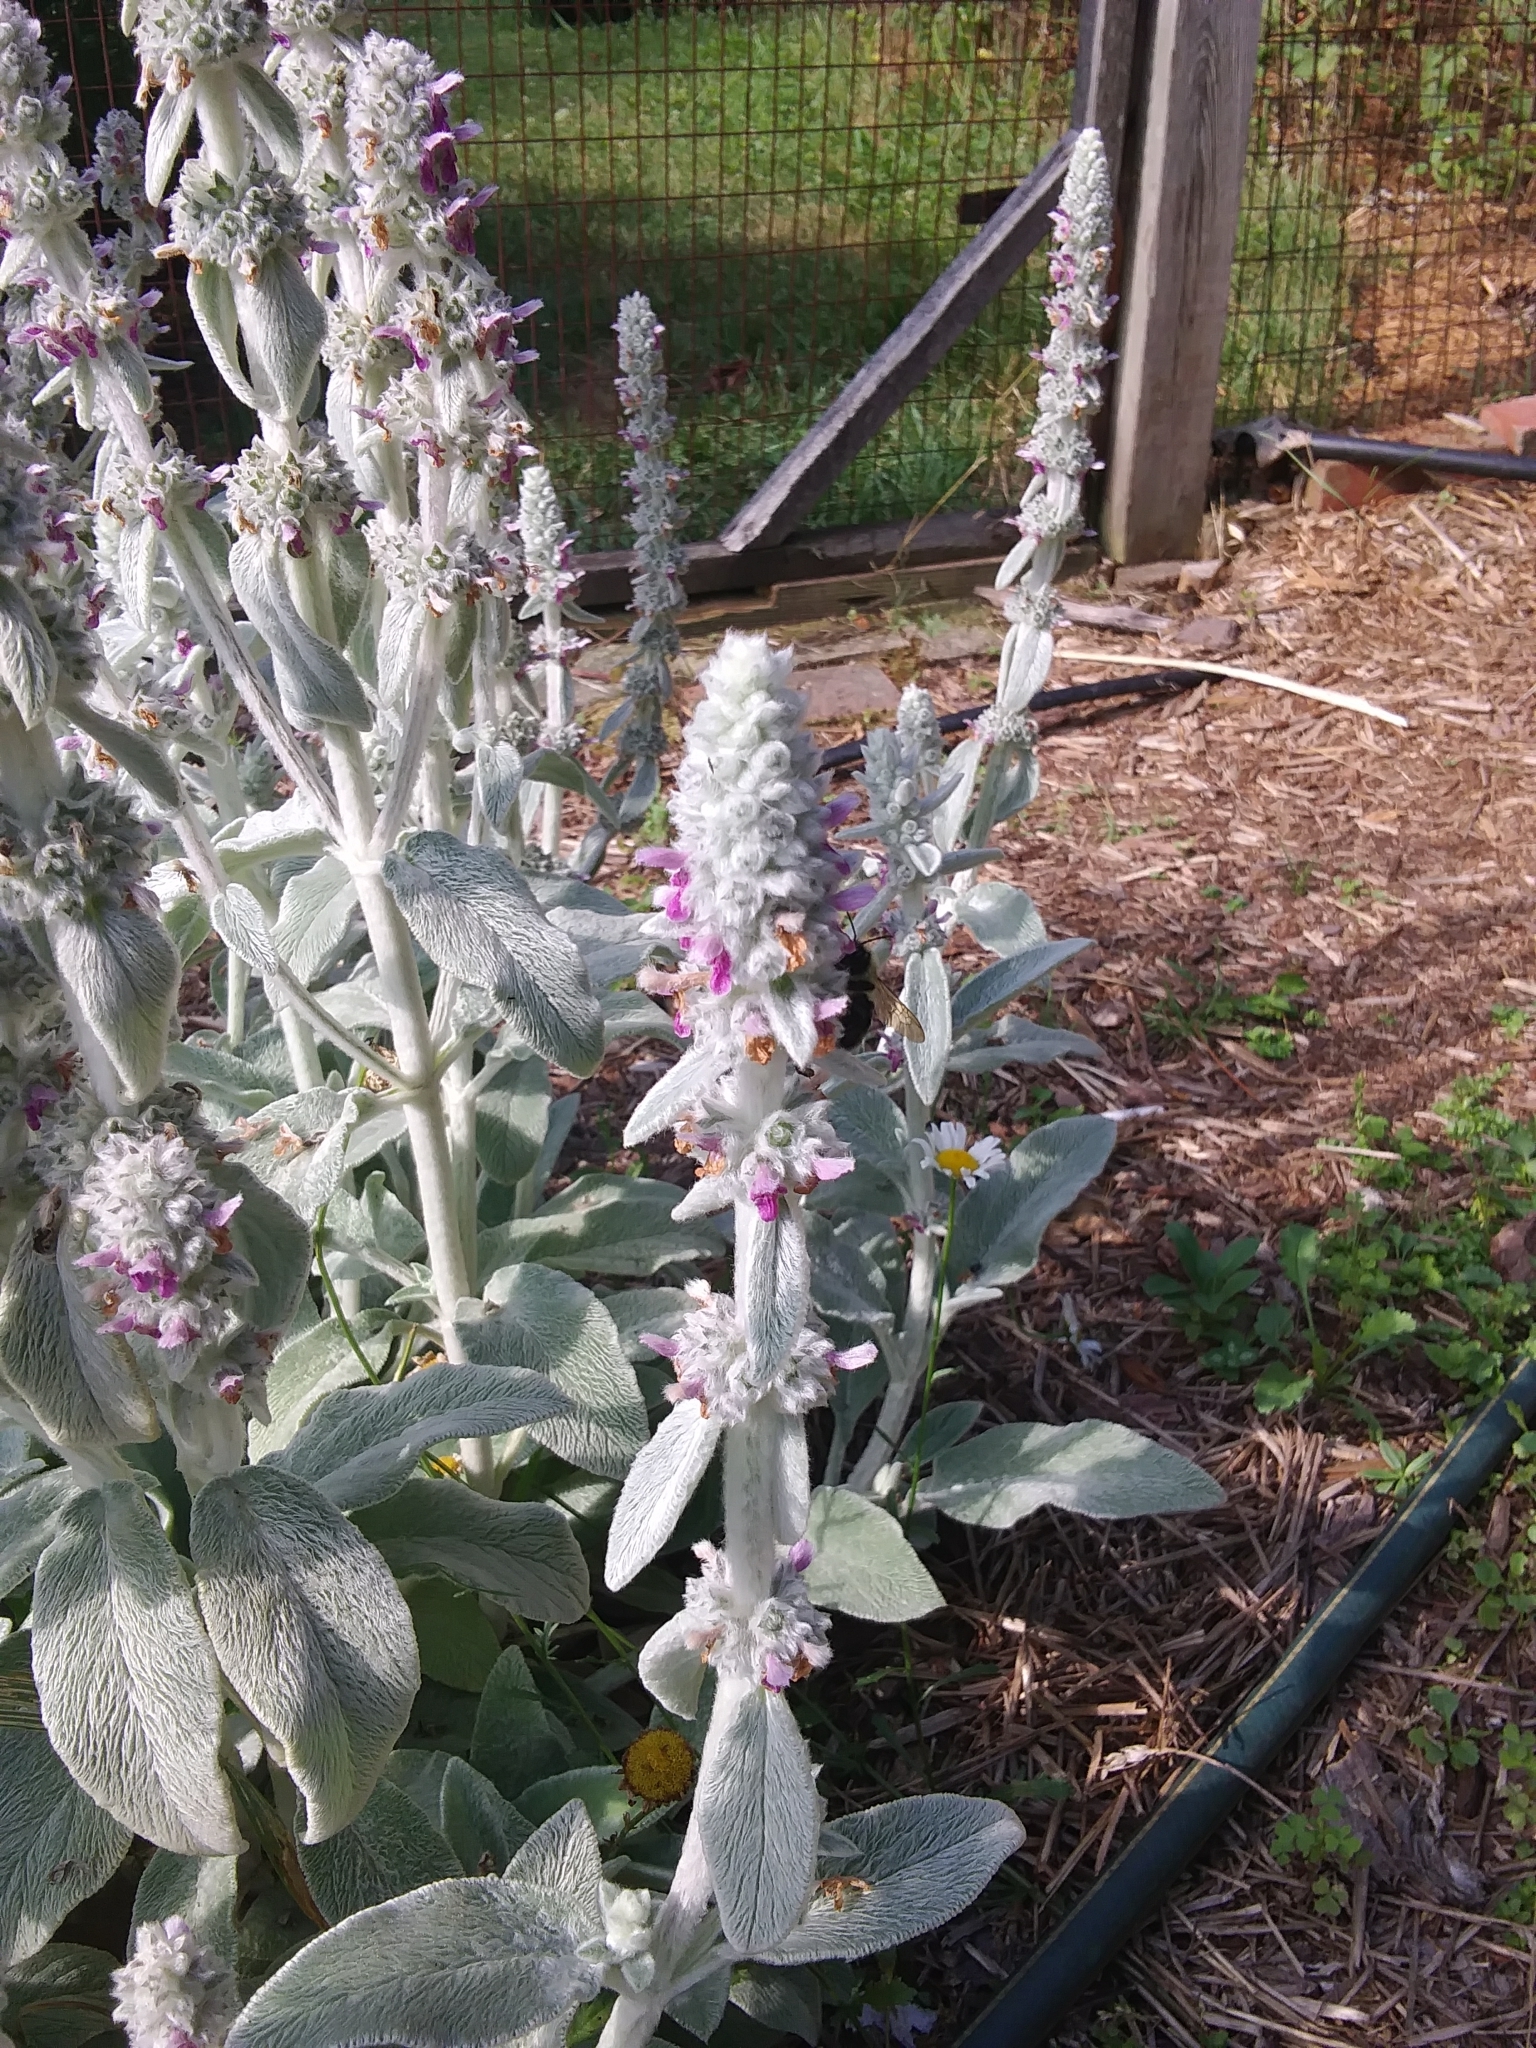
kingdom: Animalia
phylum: Arthropoda
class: Insecta
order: Hymenoptera
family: Apidae
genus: Bombus
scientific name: Bombus bimaculatus
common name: Two-spotted bumble bee
